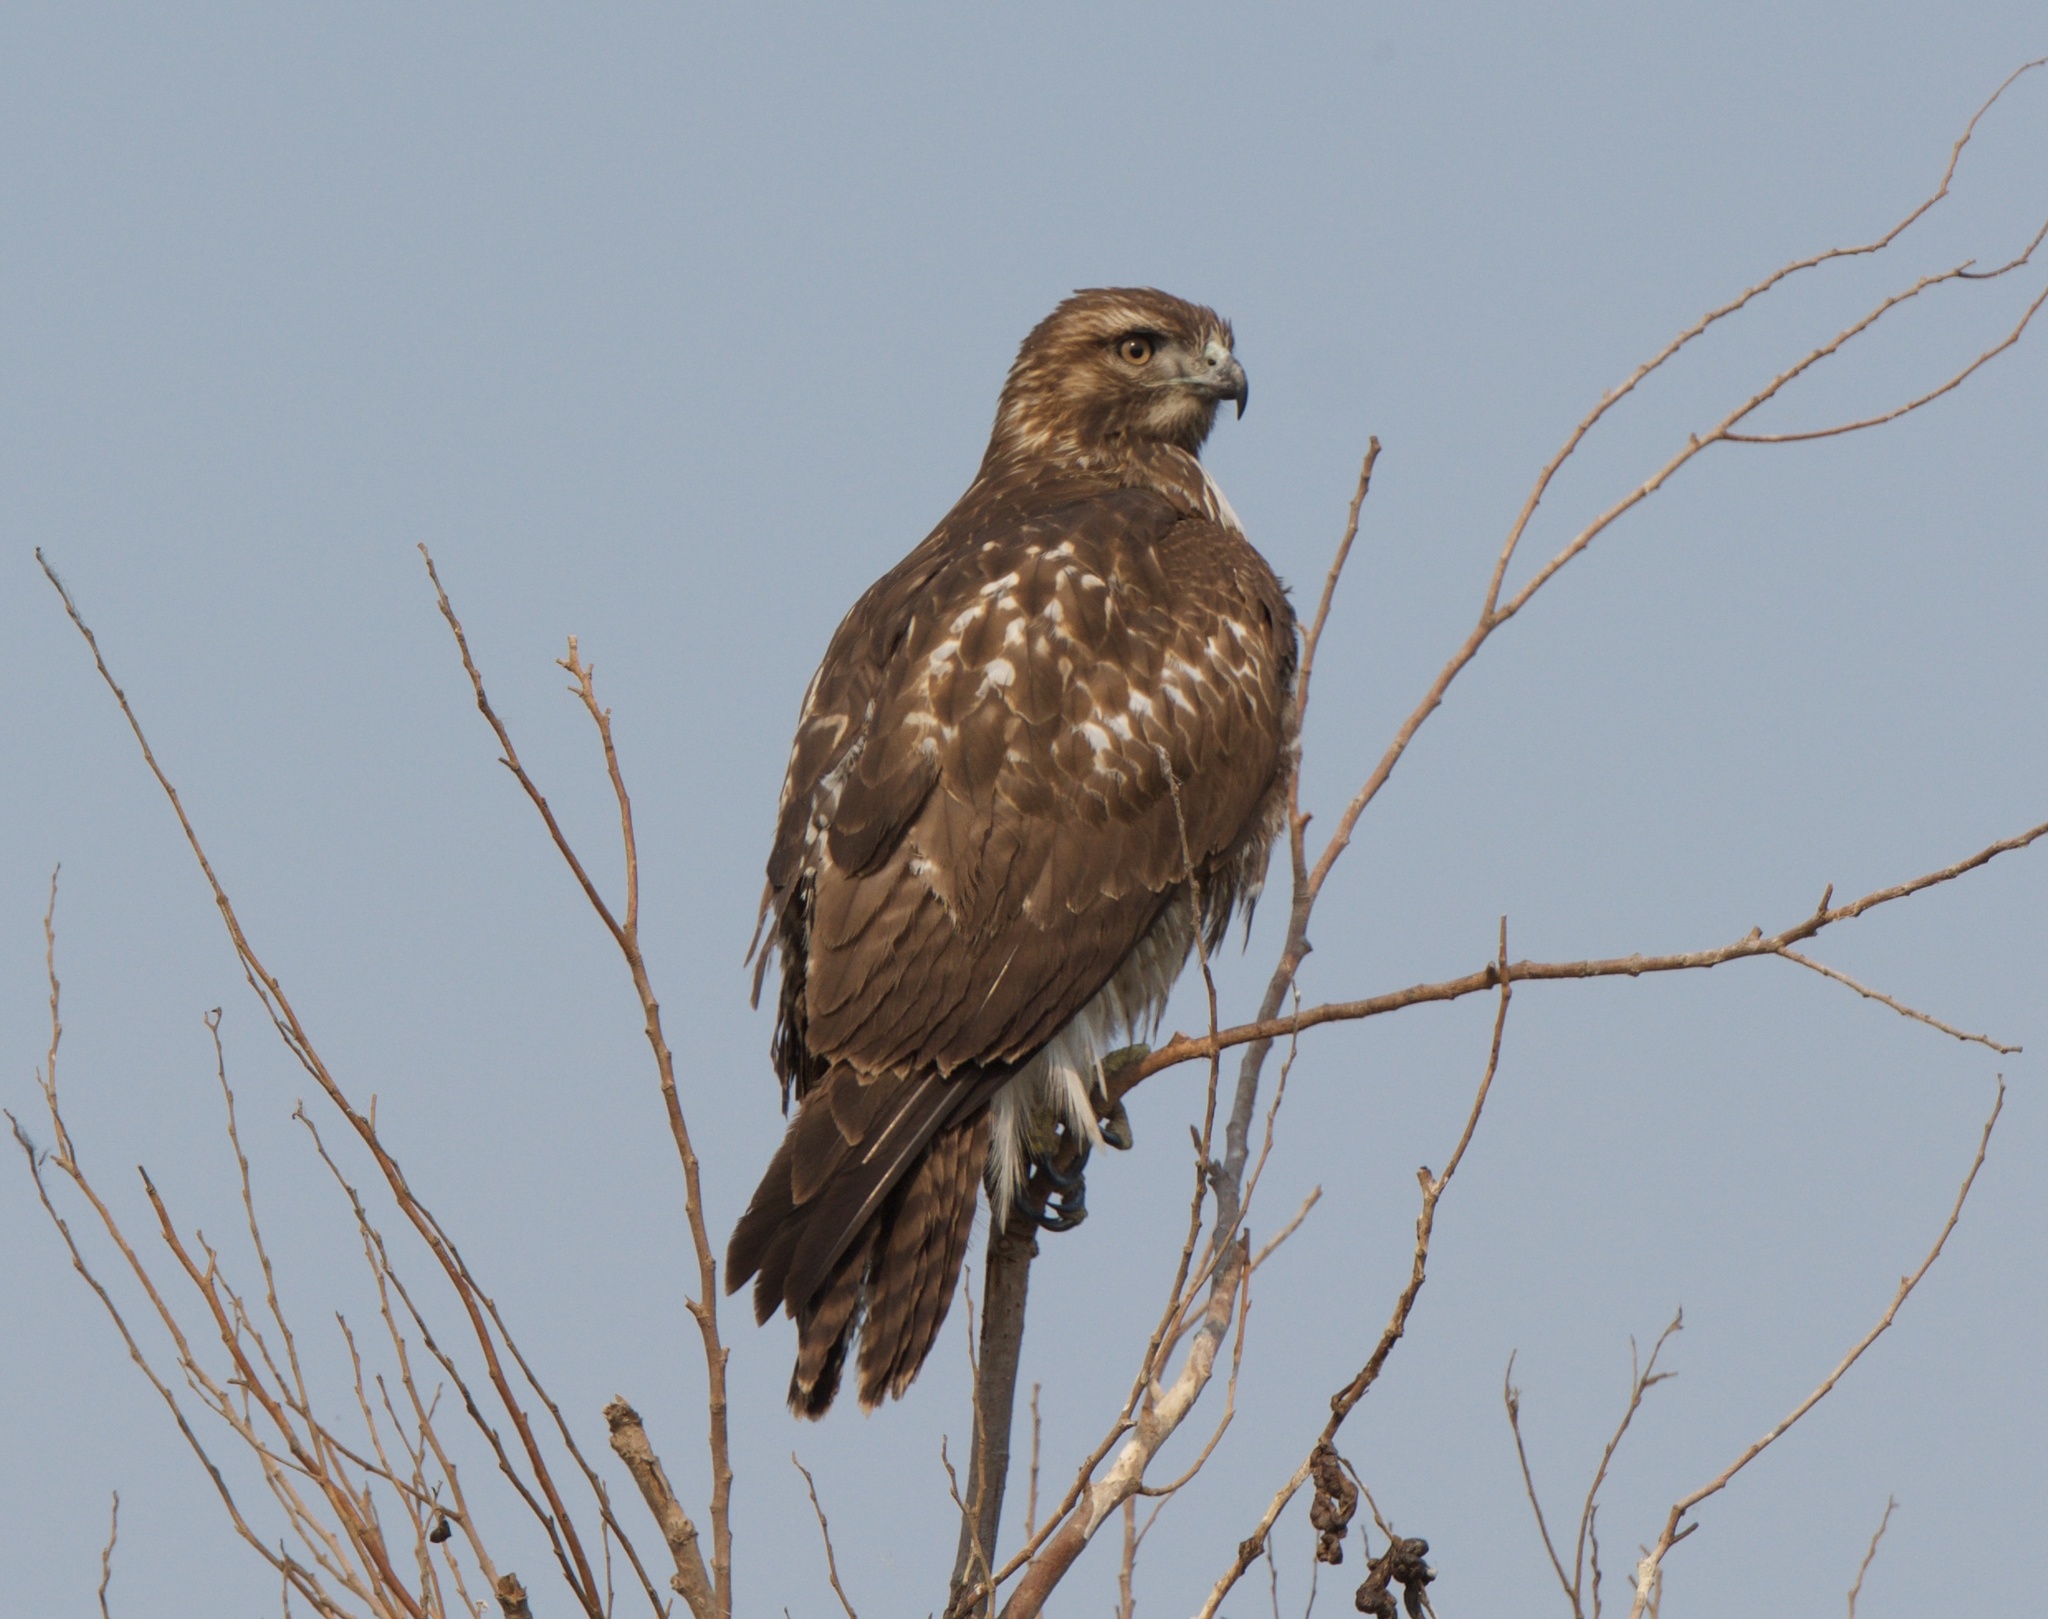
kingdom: Animalia
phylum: Chordata
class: Aves
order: Accipitriformes
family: Accipitridae
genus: Buteo
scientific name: Buteo jamaicensis
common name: Red-tailed hawk
